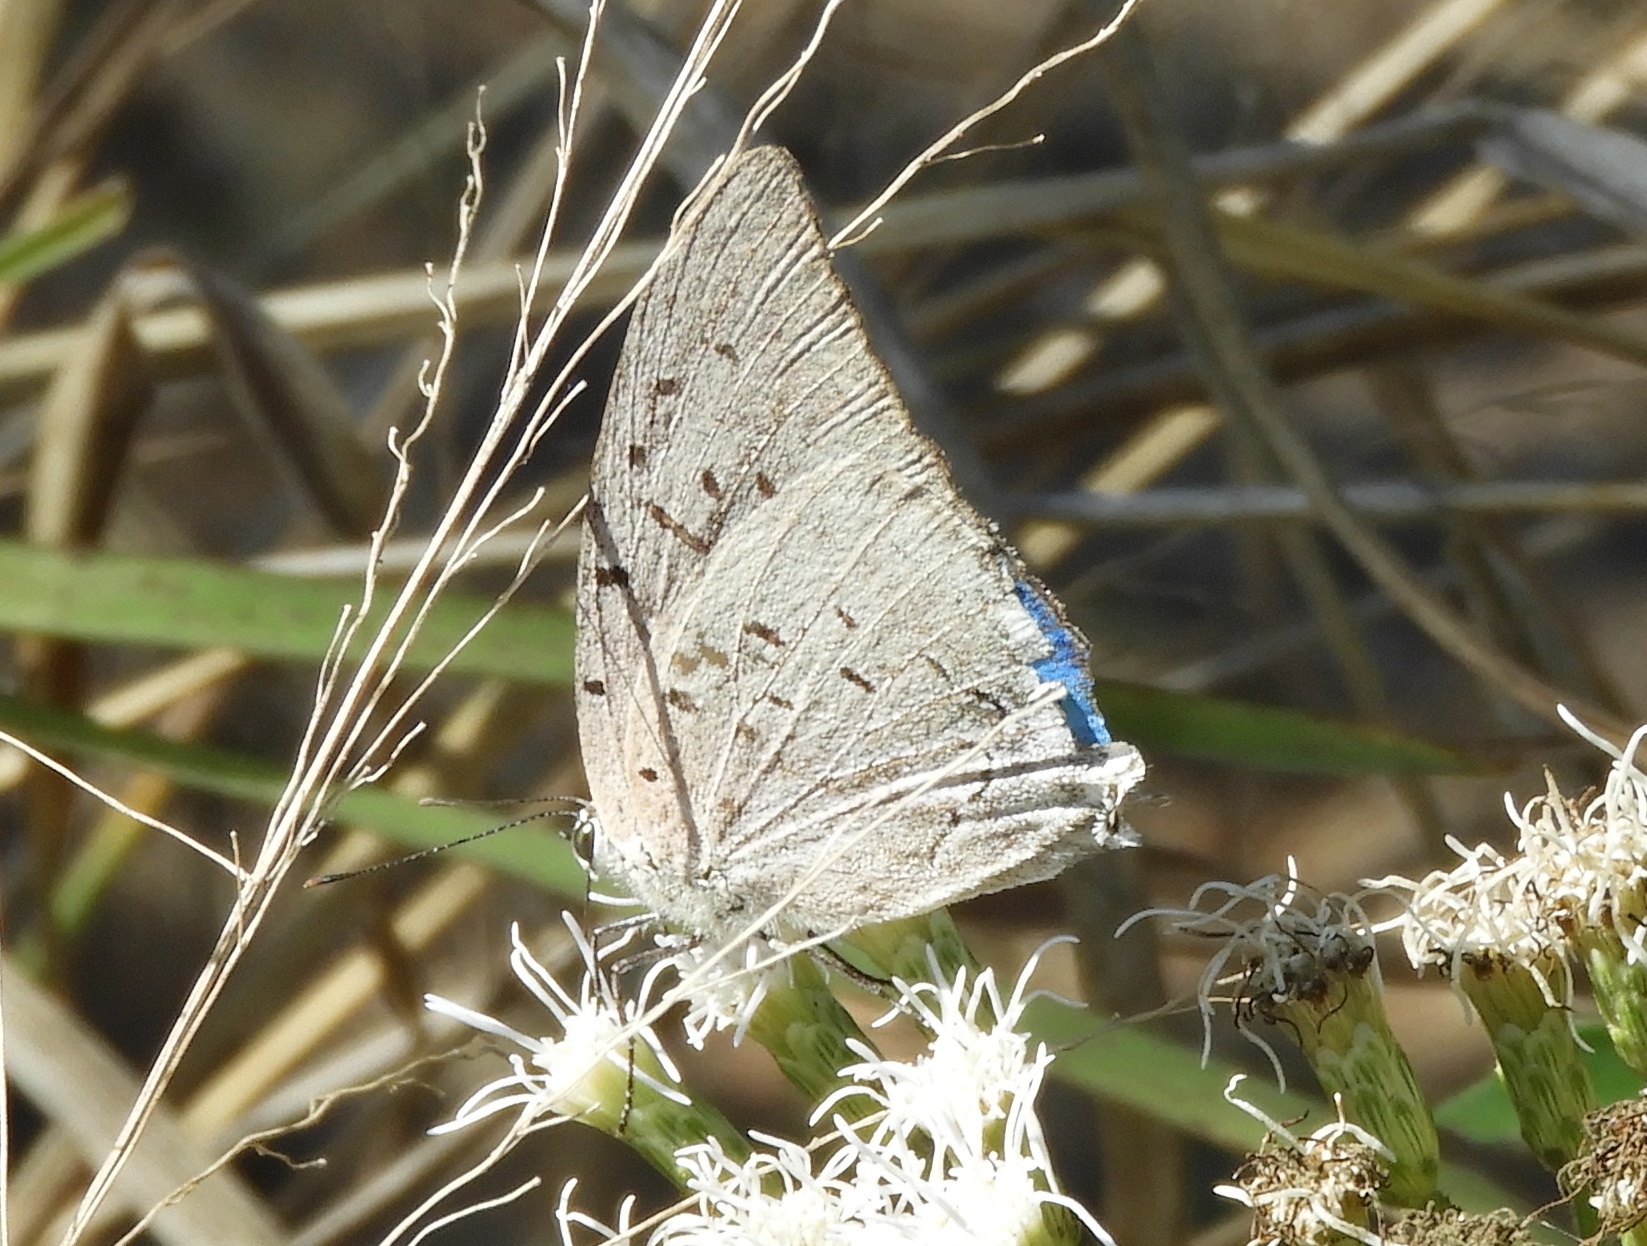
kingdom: Animalia
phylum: Arthropoda
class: Insecta
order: Lepidoptera
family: Lycaenidae
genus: Pseudolycaena
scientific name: Pseudolycaena damo
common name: Sky-blue hairstreak
